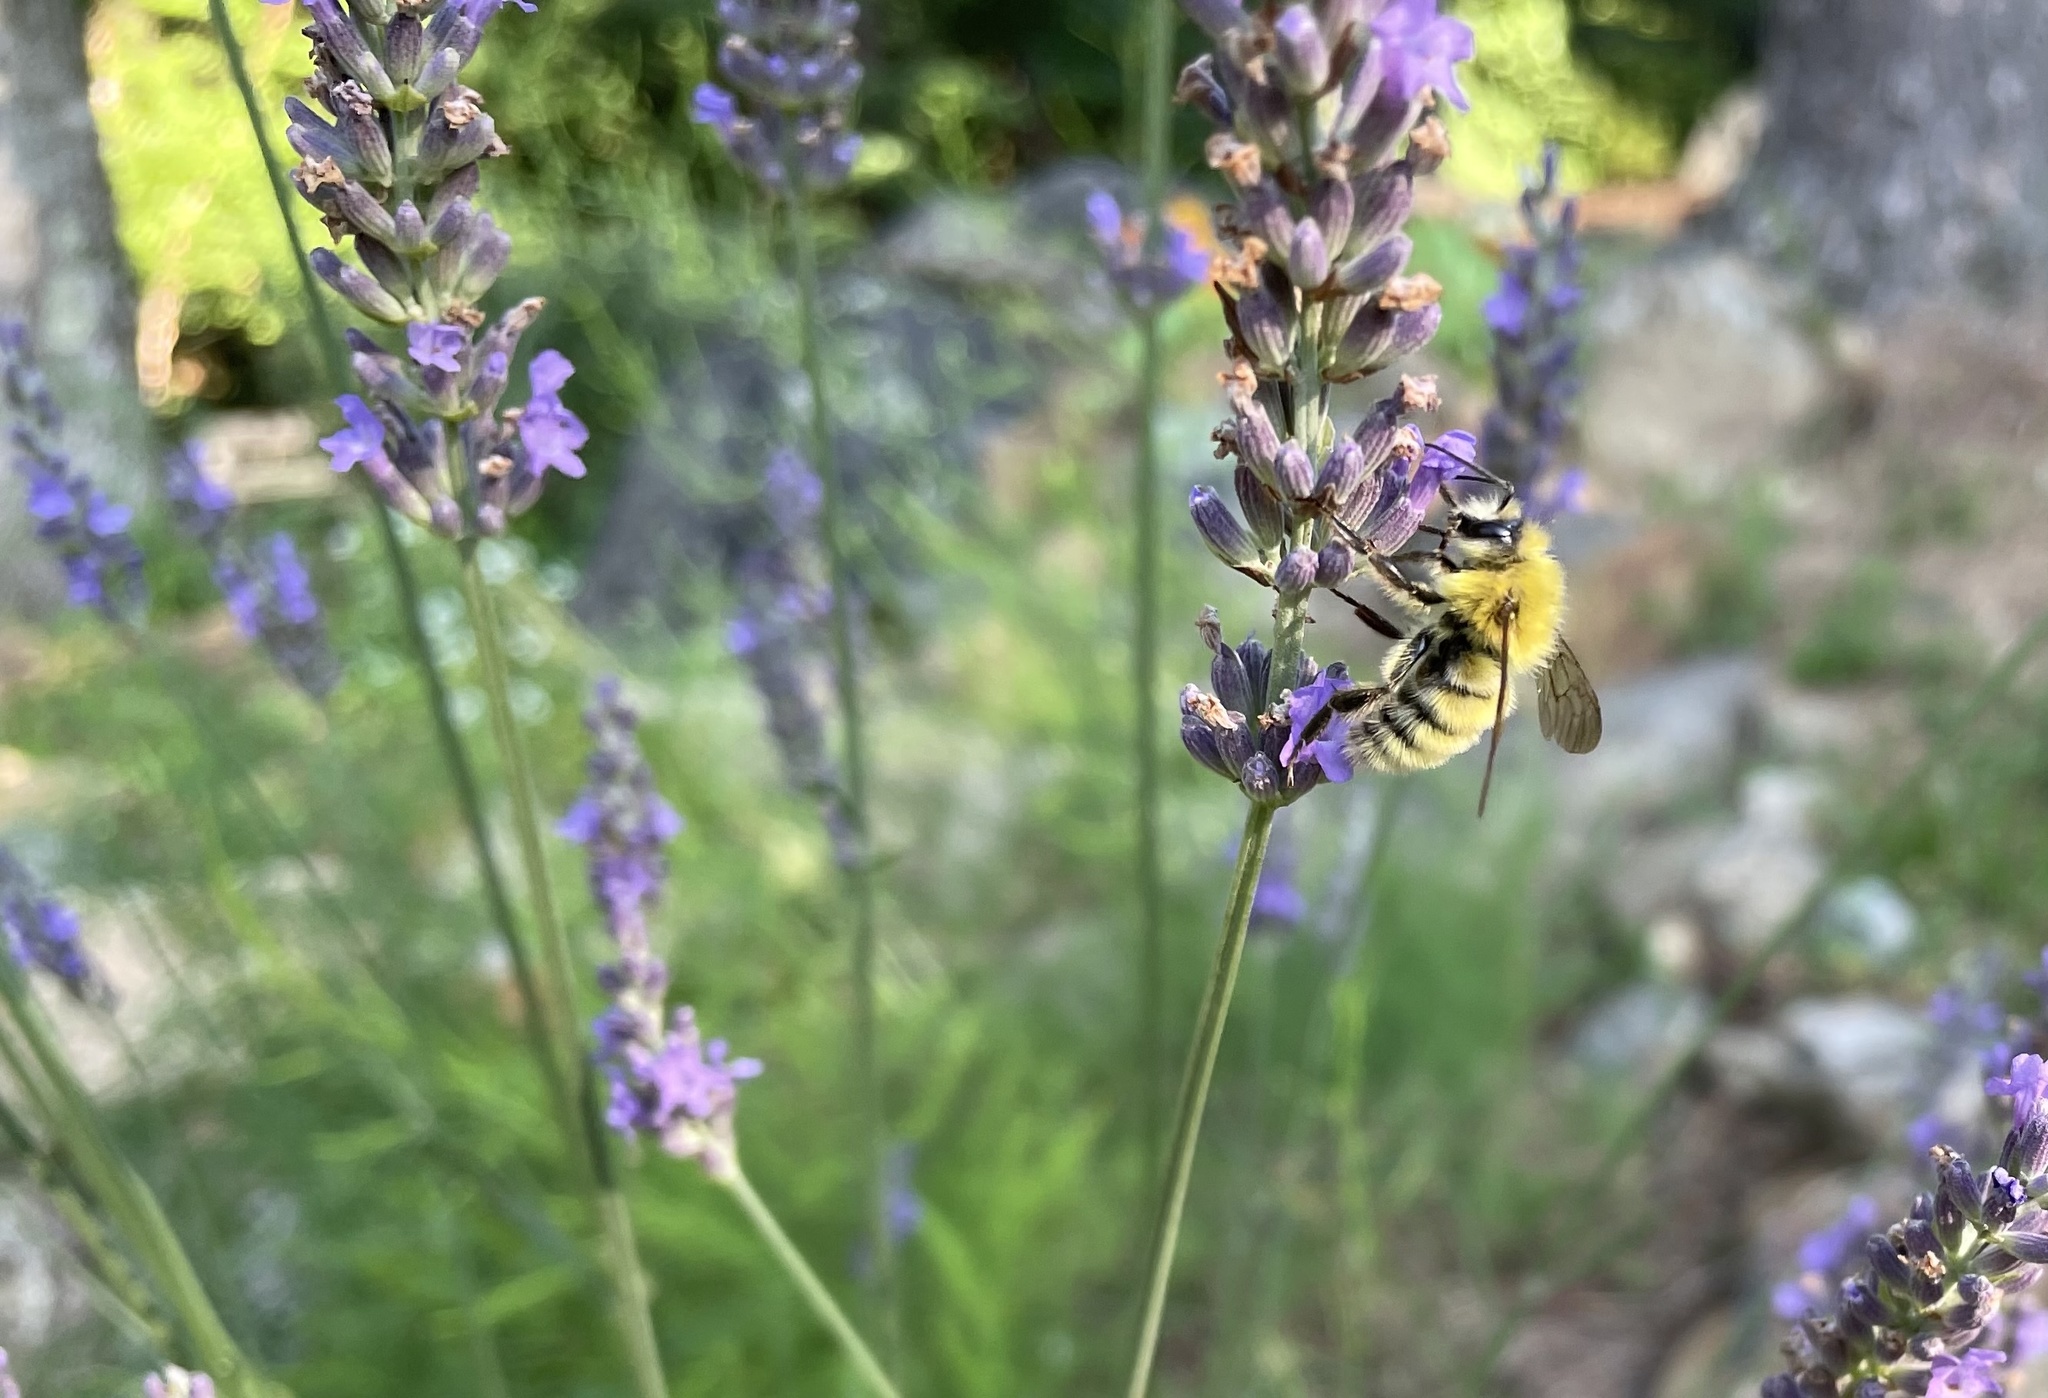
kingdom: Animalia
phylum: Arthropoda
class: Insecta
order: Hymenoptera
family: Apidae
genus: Bombus
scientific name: Bombus perplexus
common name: Confusing bumble bee
